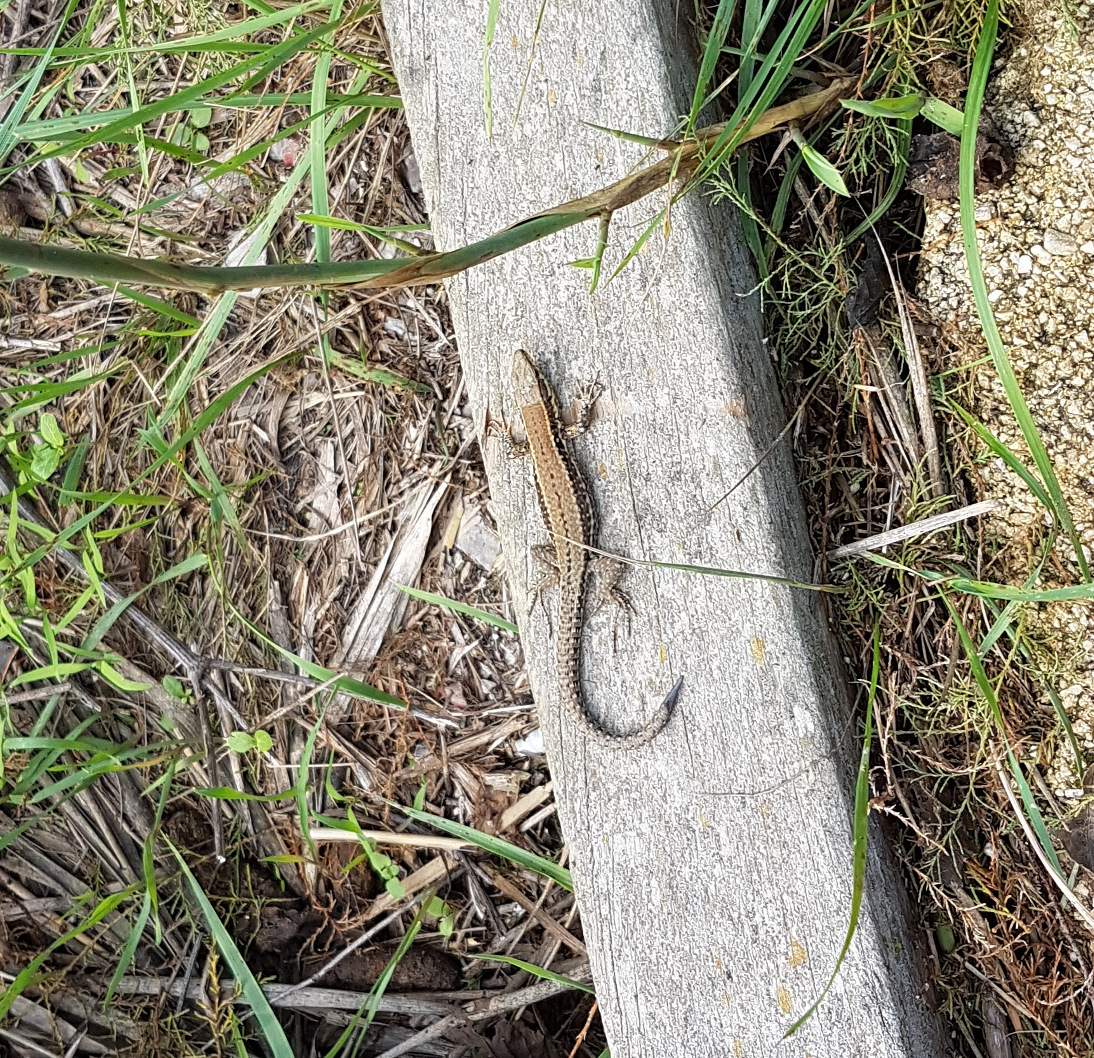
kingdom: Animalia
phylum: Chordata
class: Squamata
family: Lacertidae
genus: Podarcis
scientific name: Podarcis muralis
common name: Common wall lizard
